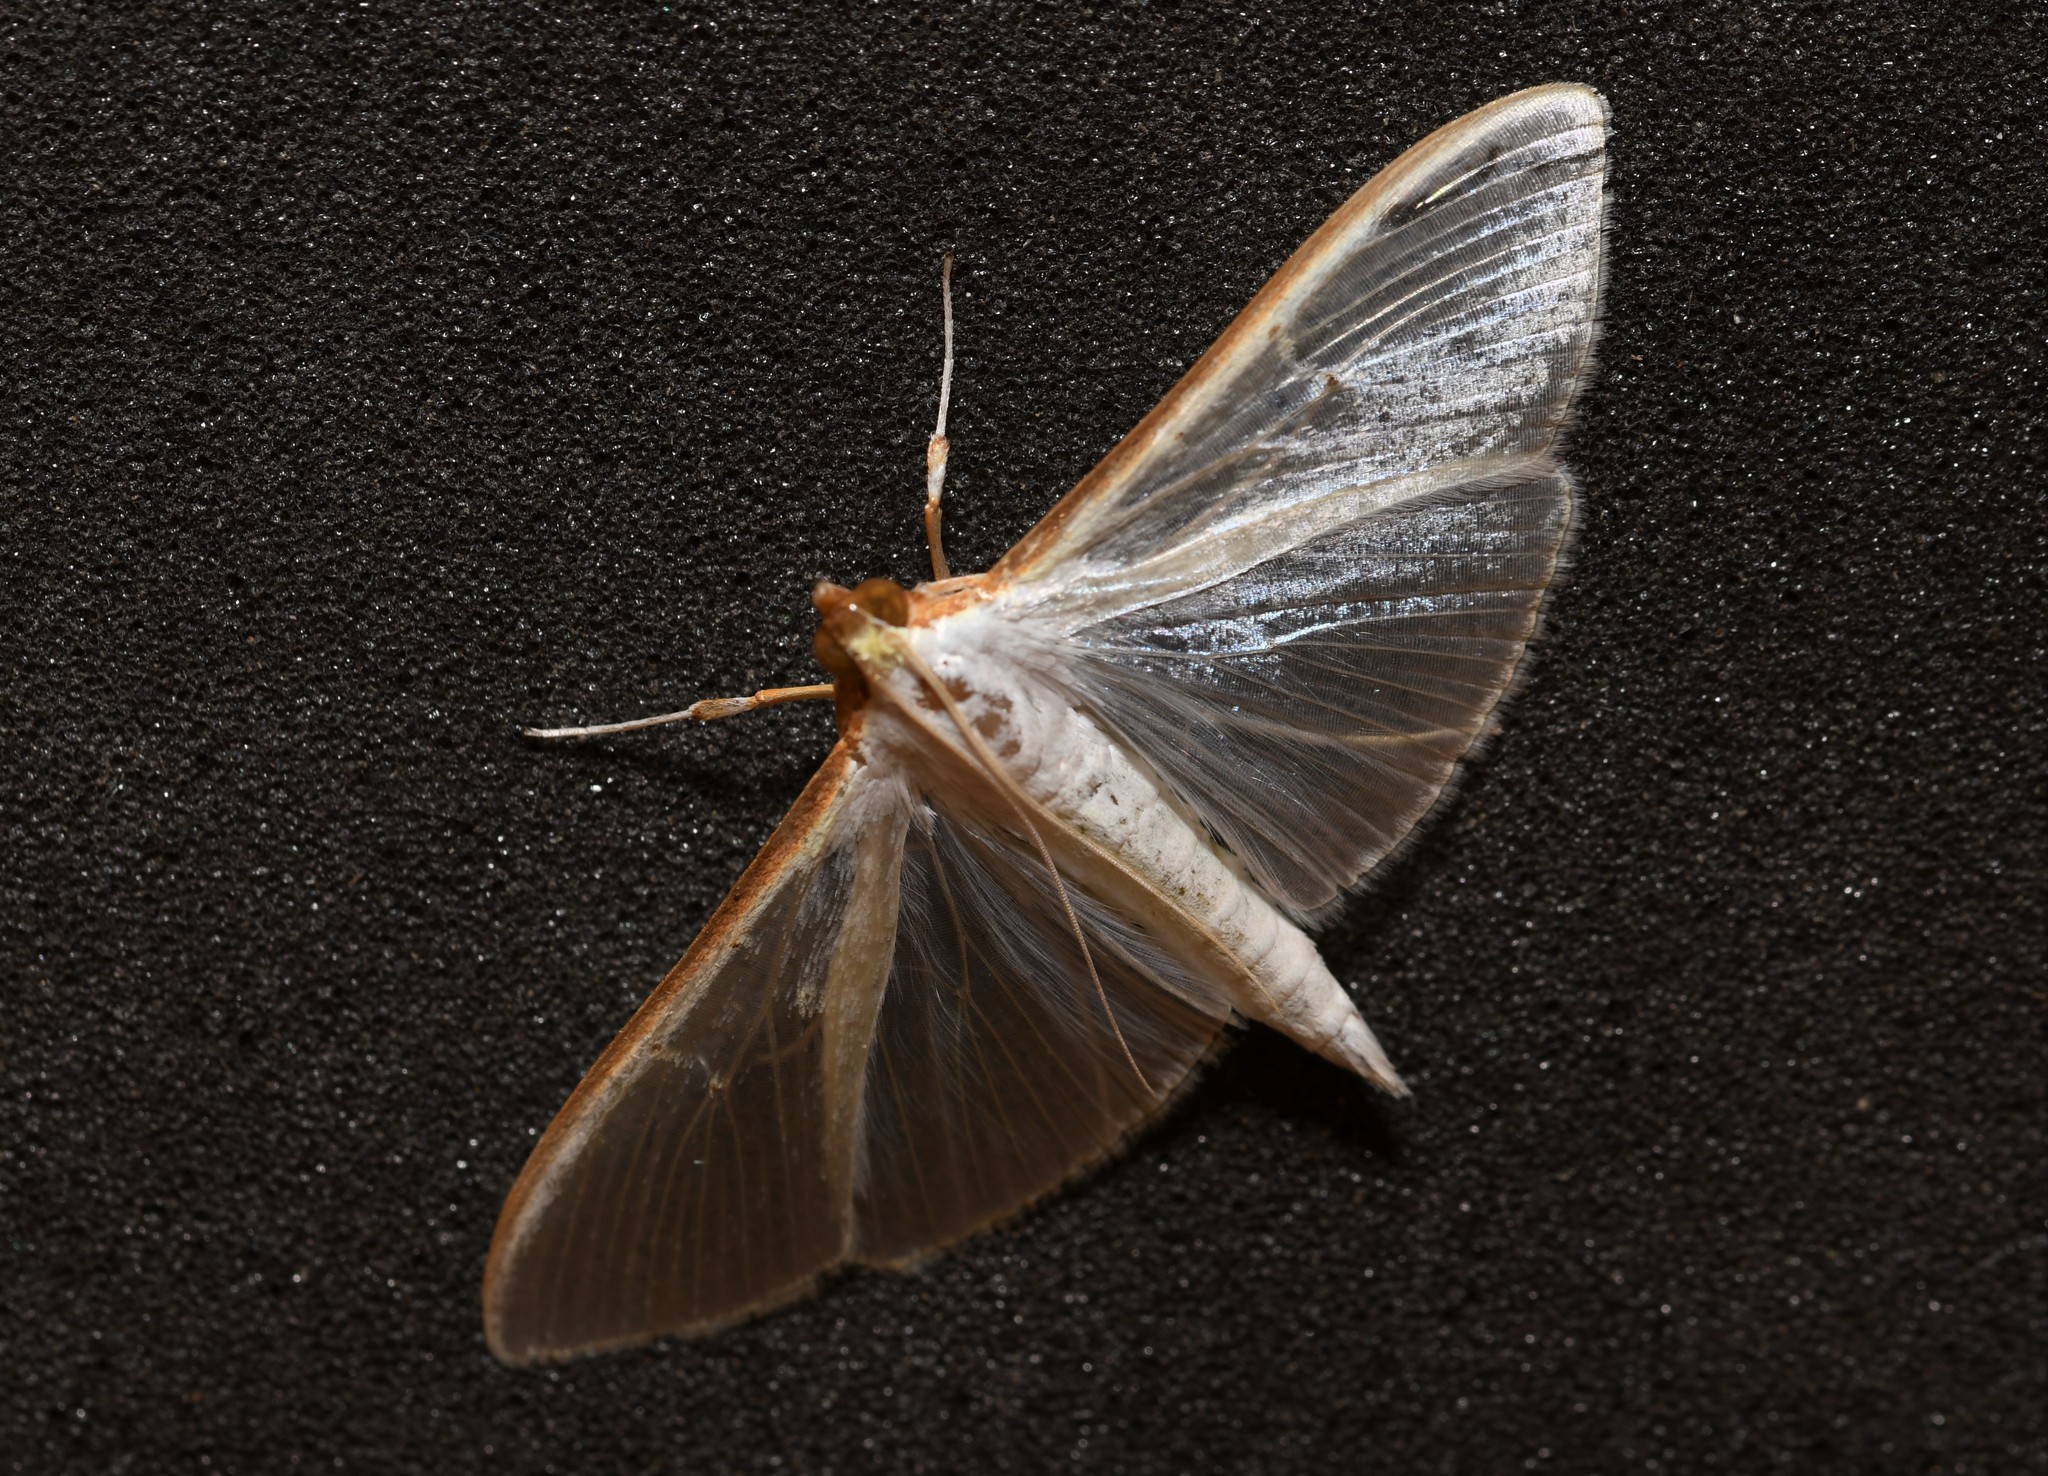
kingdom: Animalia
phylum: Arthropoda
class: Insecta
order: Lepidoptera
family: Crambidae
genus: Palpita
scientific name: Palpita vitrealis
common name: Olive-tree pearl
